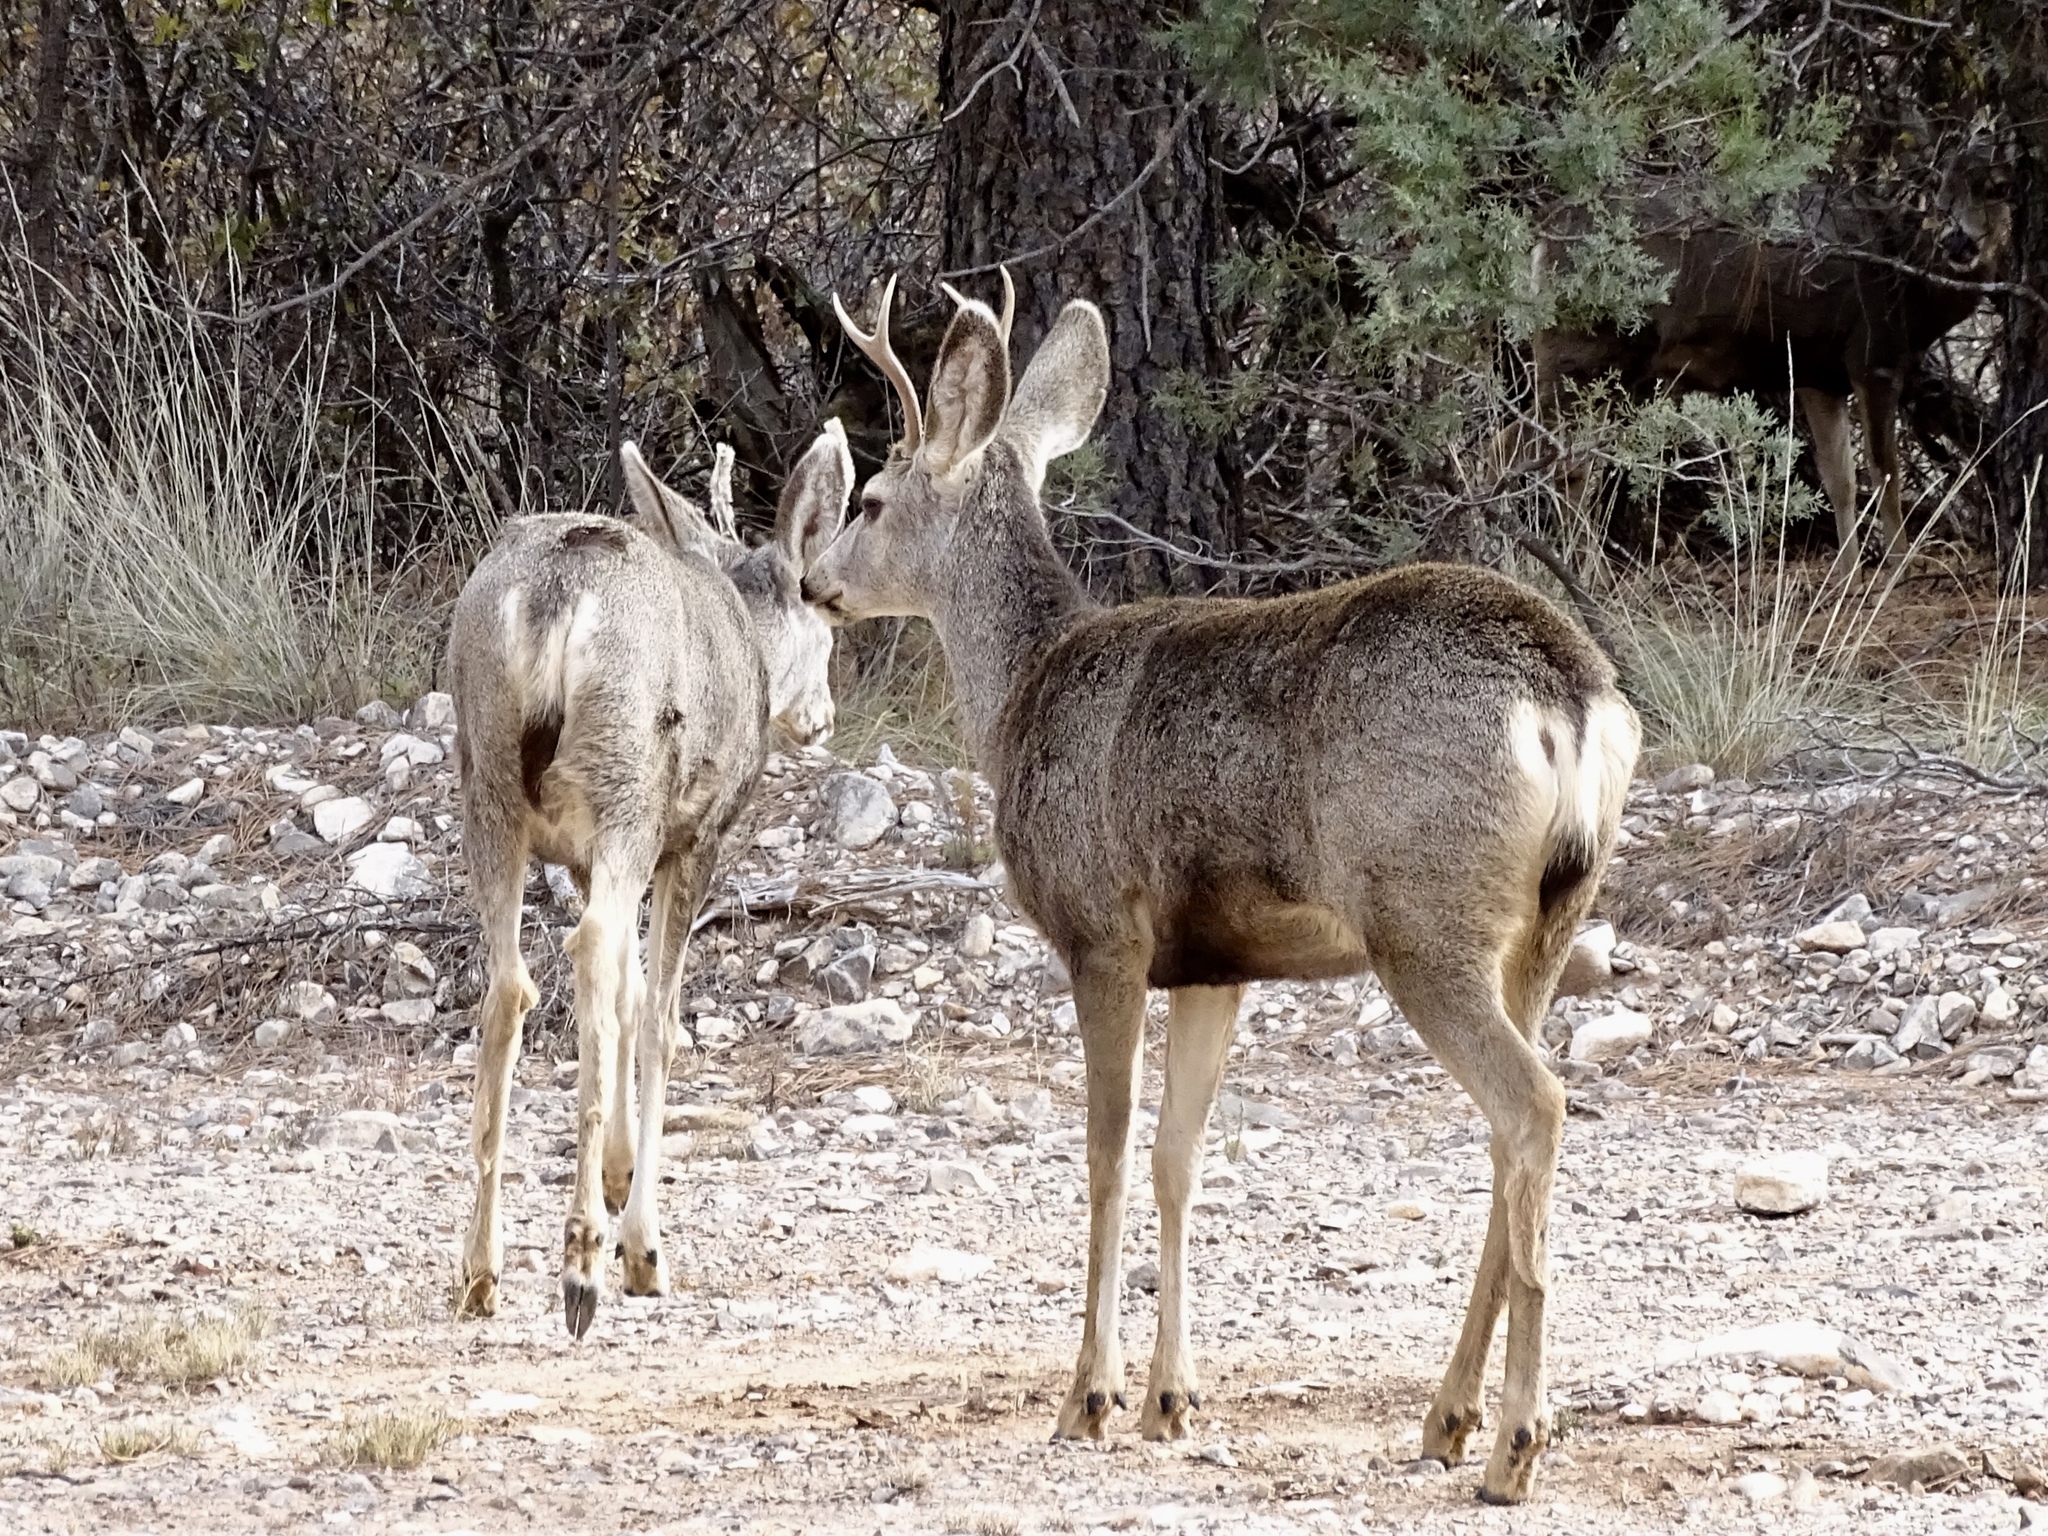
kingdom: Animalia
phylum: Chordata
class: Mammalia
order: Artiodactyla
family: Cervidae
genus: Odocoileus
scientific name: Odocoileus hemionus
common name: Mule deer
